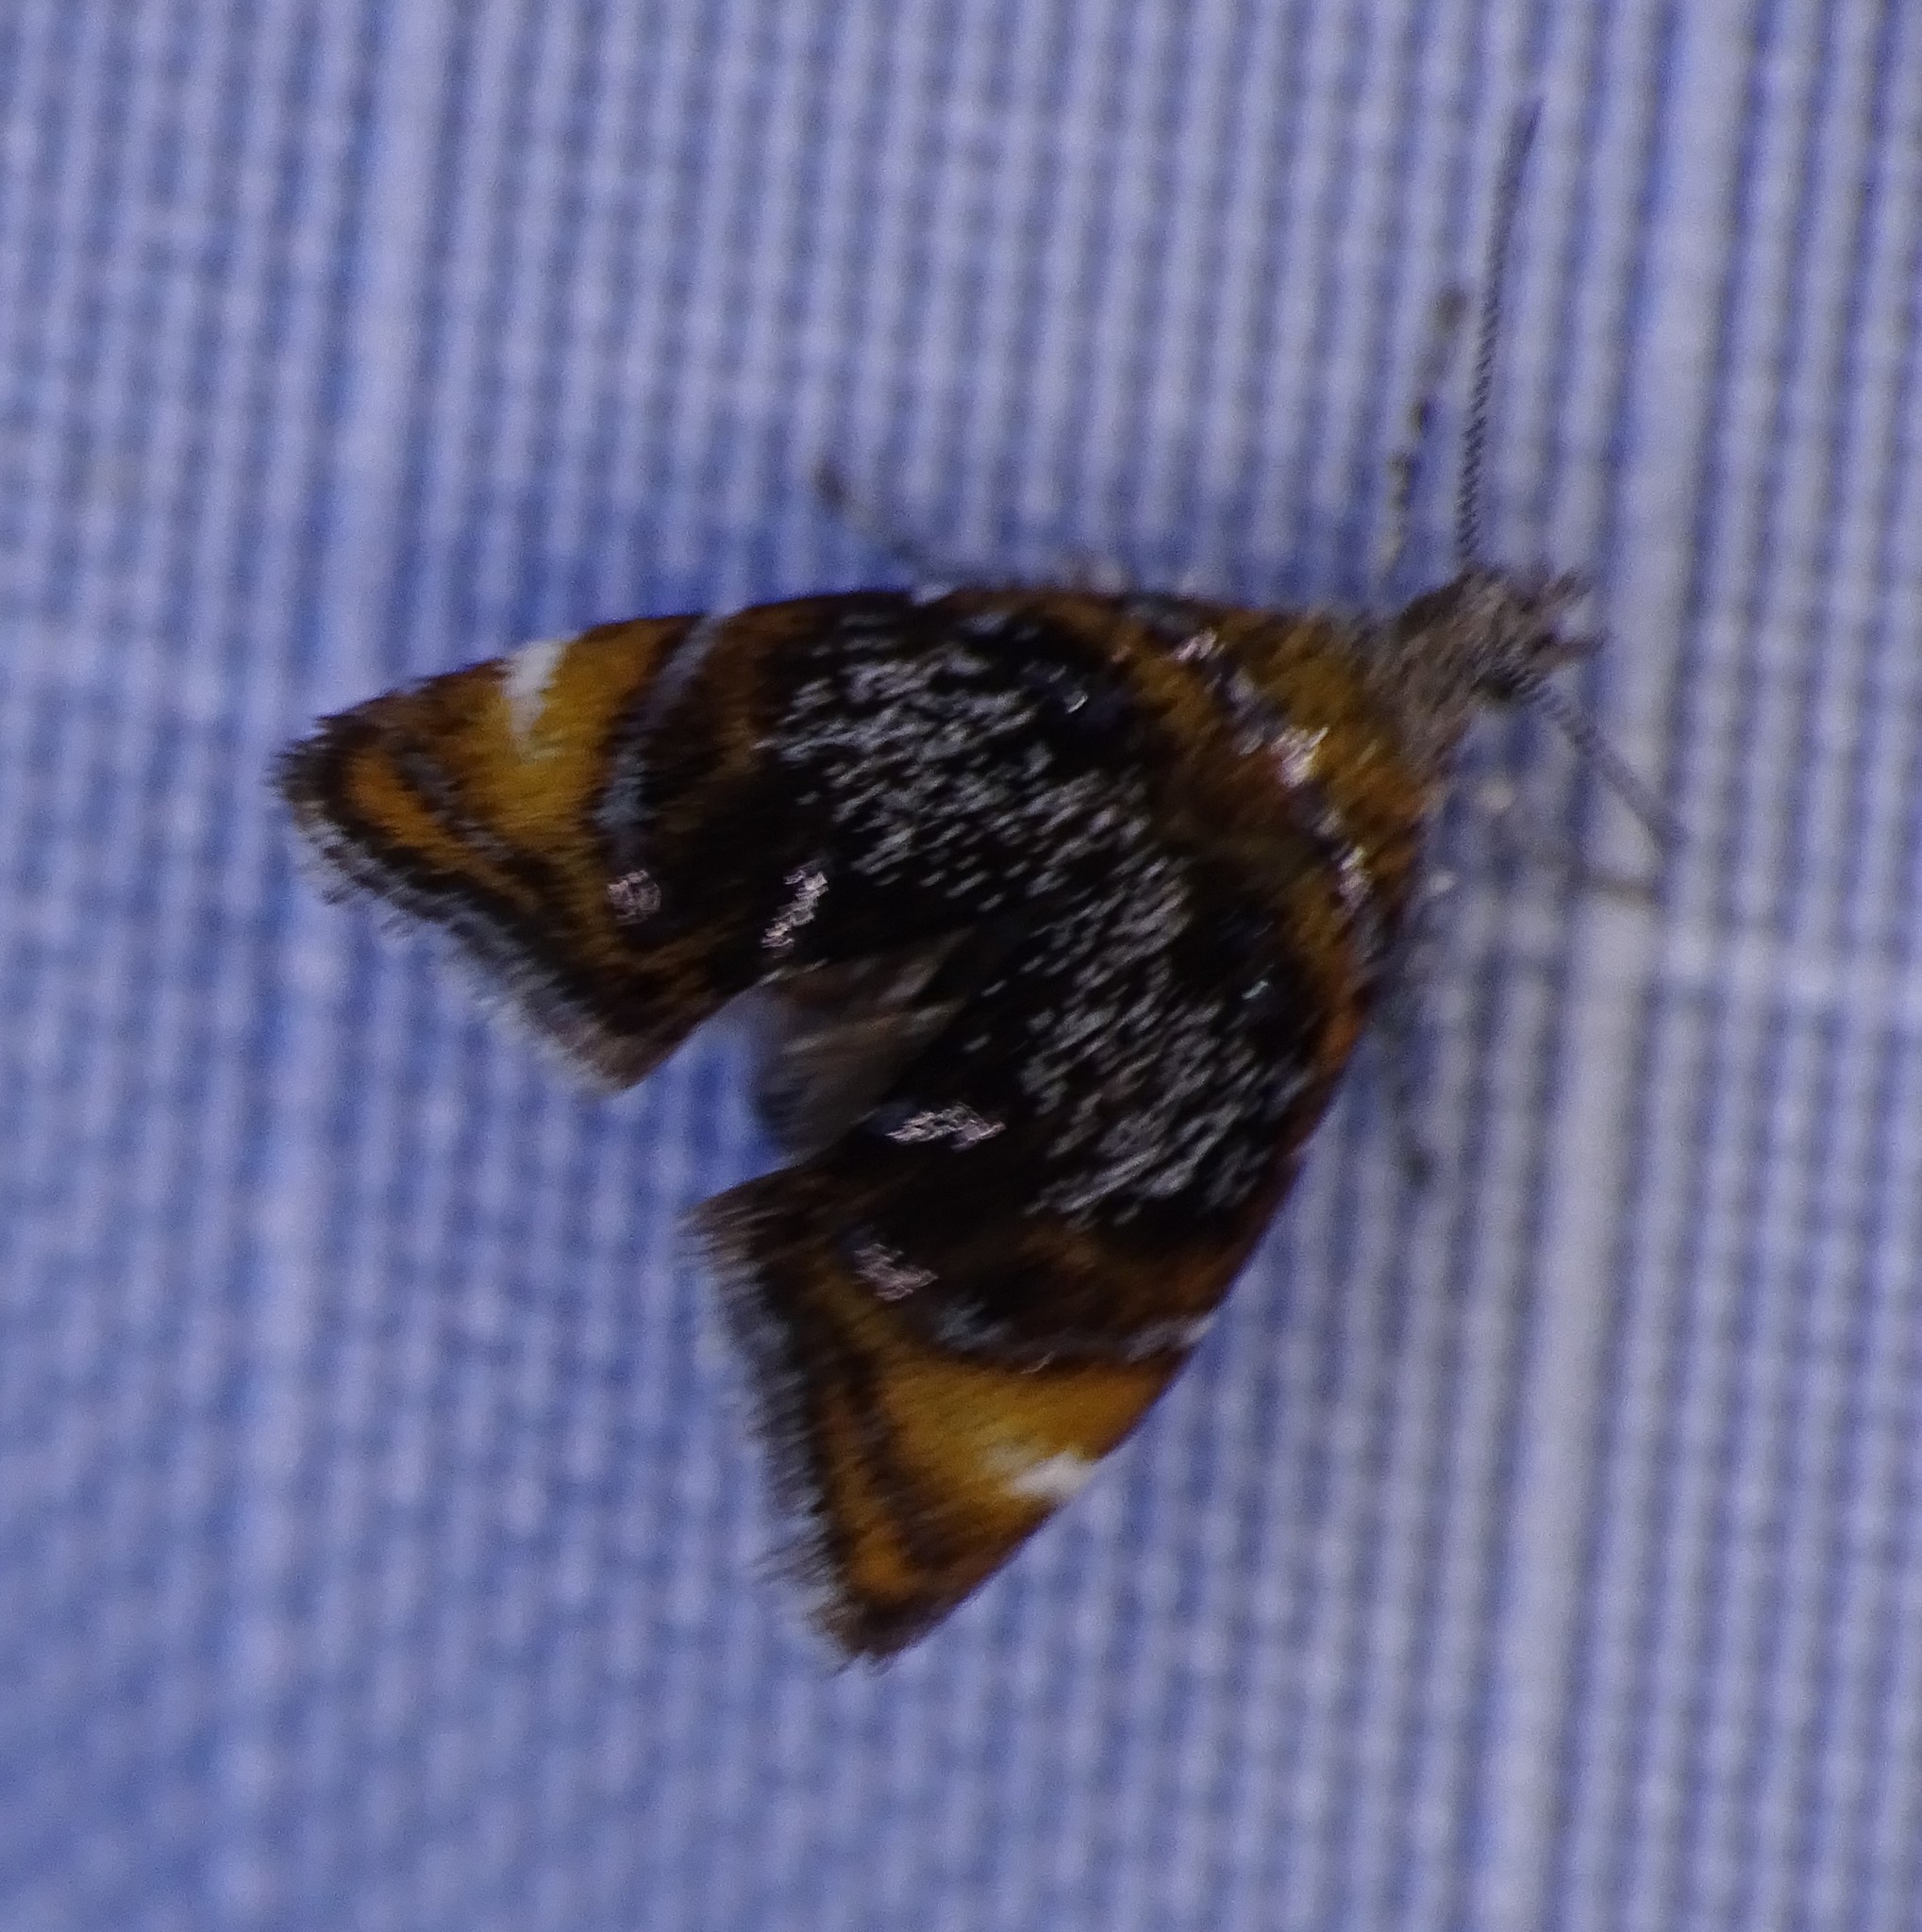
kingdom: Animalia
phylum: Arthropoda
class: Insecta
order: Lepidoptera
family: Choreutidae
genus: Prochoreutis
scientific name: Prochoreutis inflatella
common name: Skullcap skeletonizer moth
